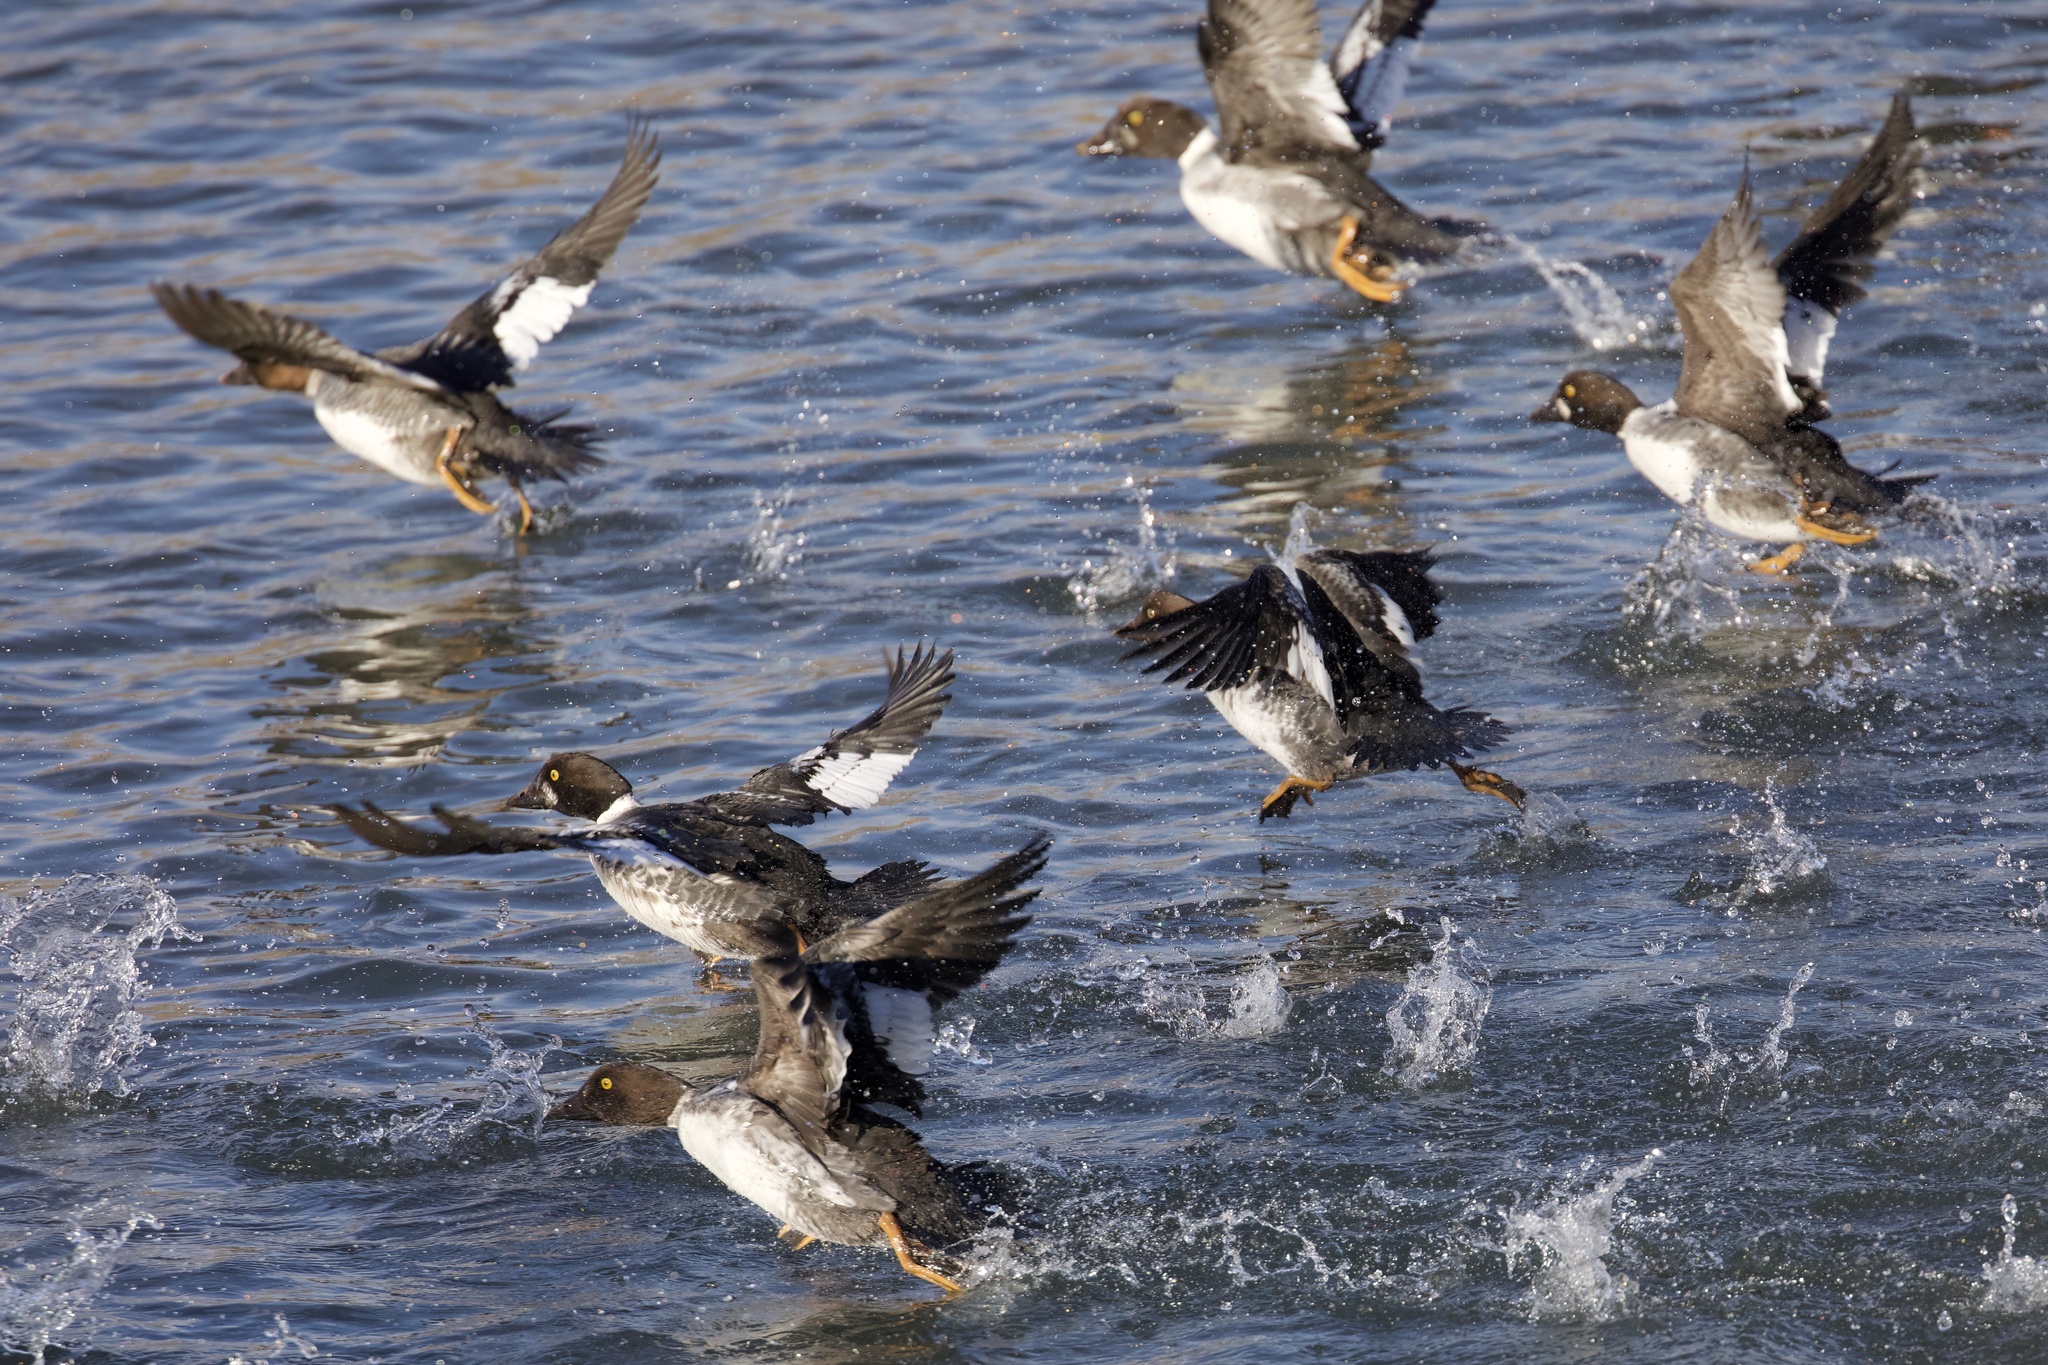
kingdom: Animalia
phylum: Chordata
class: Aves
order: Anseriformes
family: Anatidae
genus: Bucephala
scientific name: Bucephala clangula
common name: Common goldeneye
